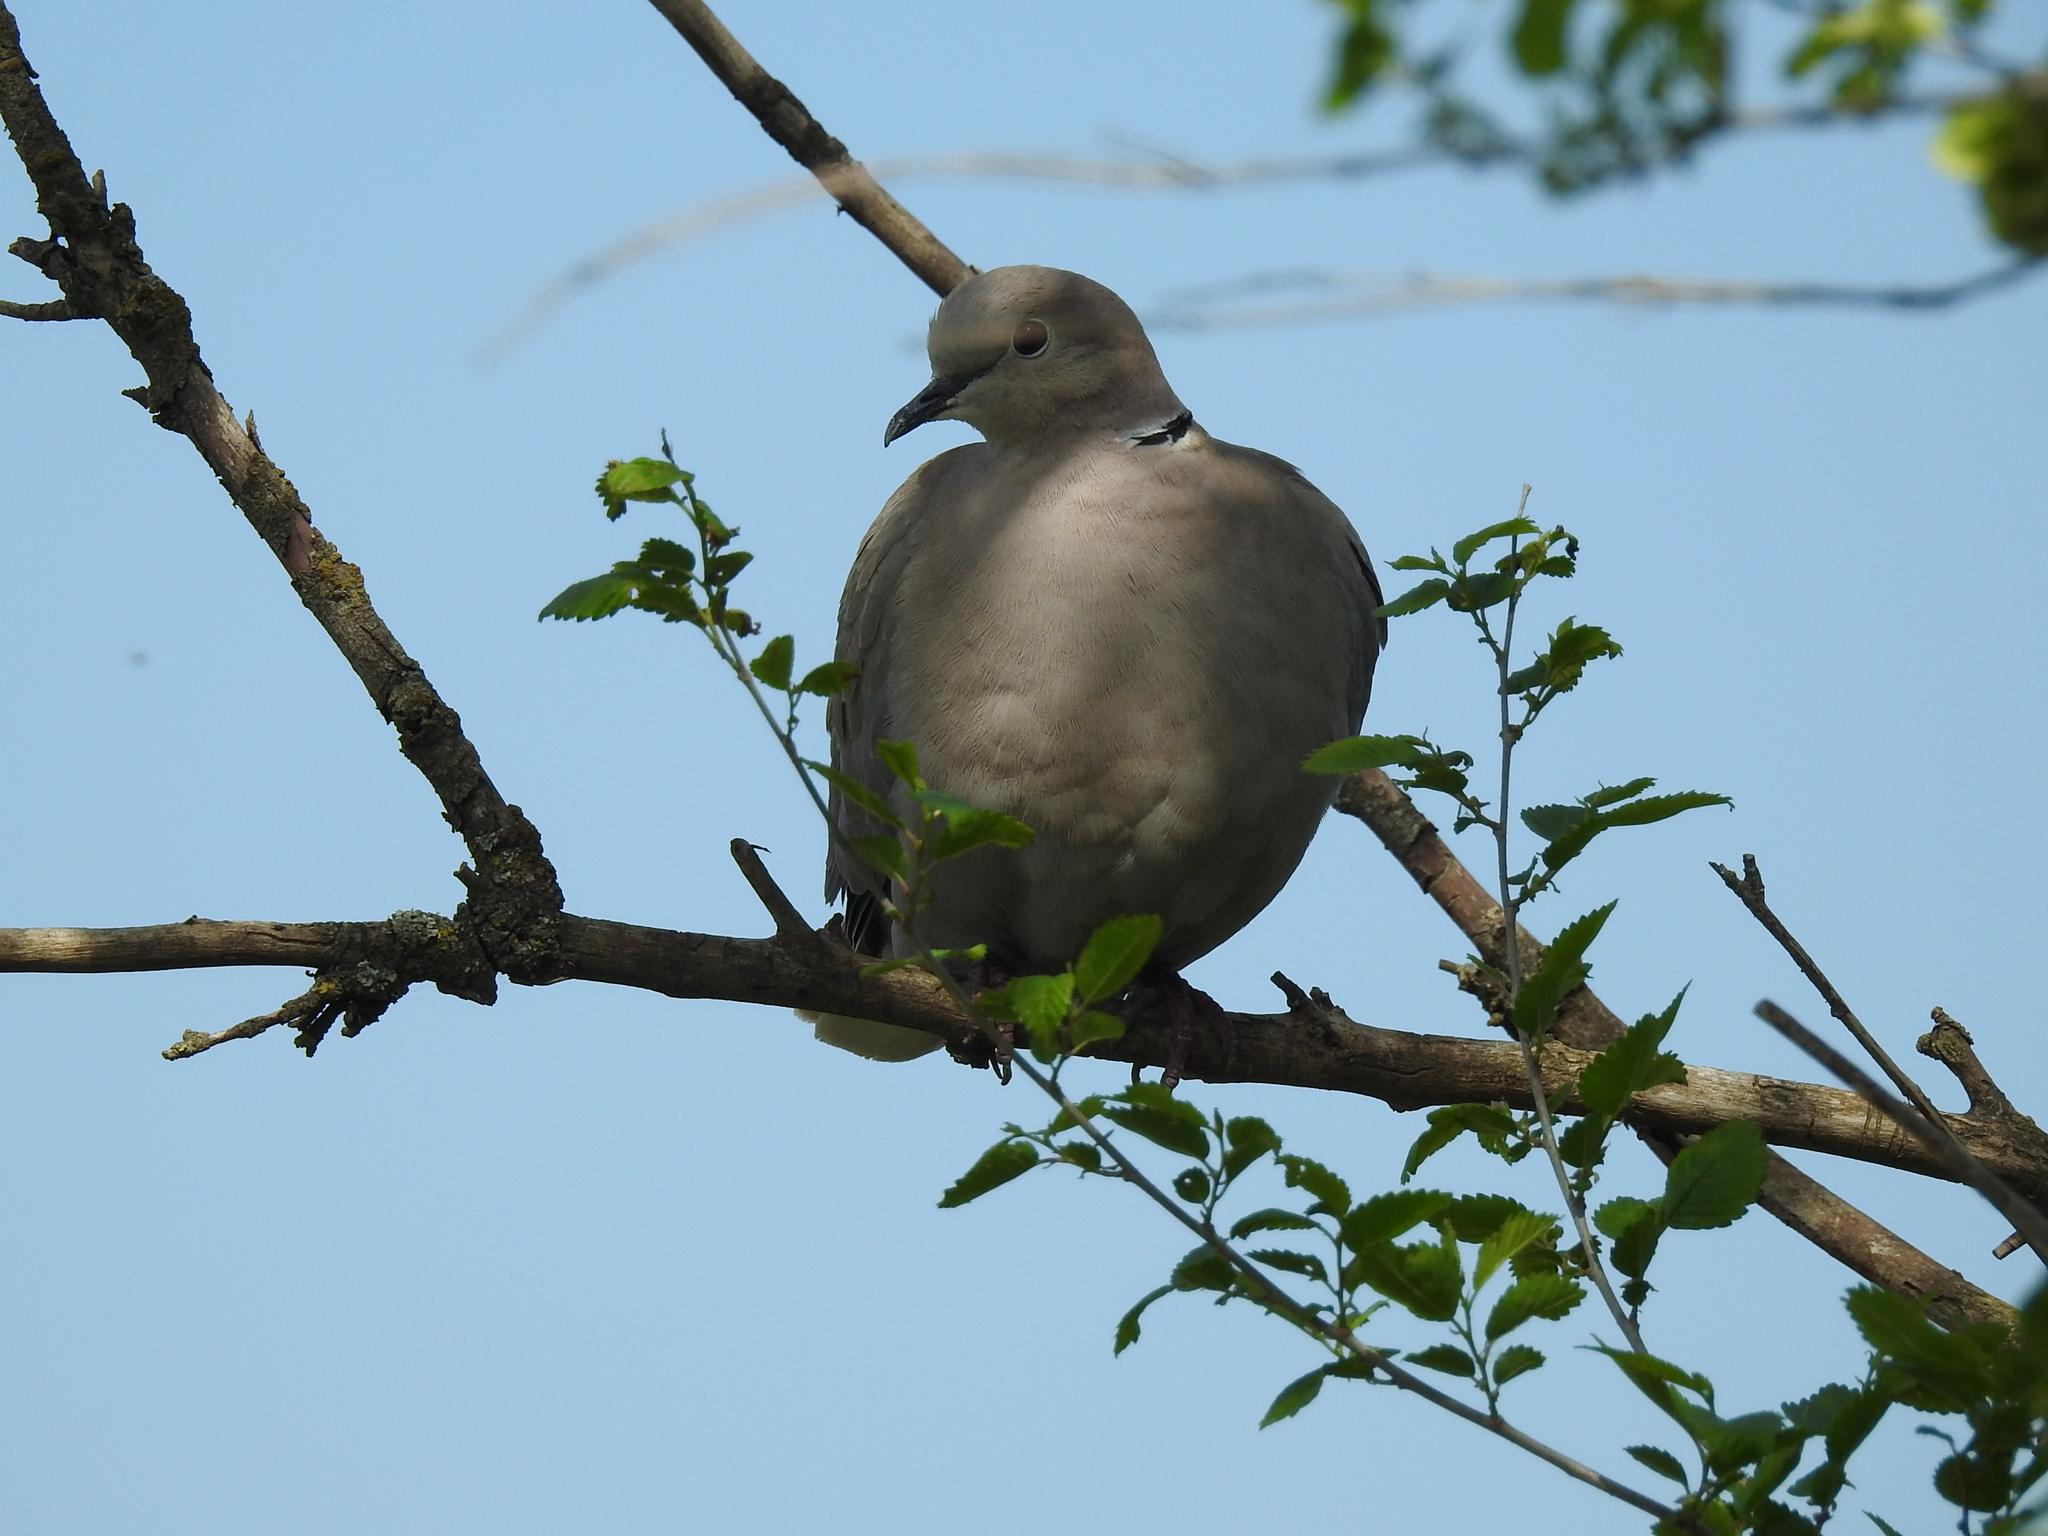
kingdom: Animalia
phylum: Chordata
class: Aves
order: Columbiformes
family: Columbidae
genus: Streptopelia
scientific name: Streptopelia decaocto
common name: Eurasian collared dove
